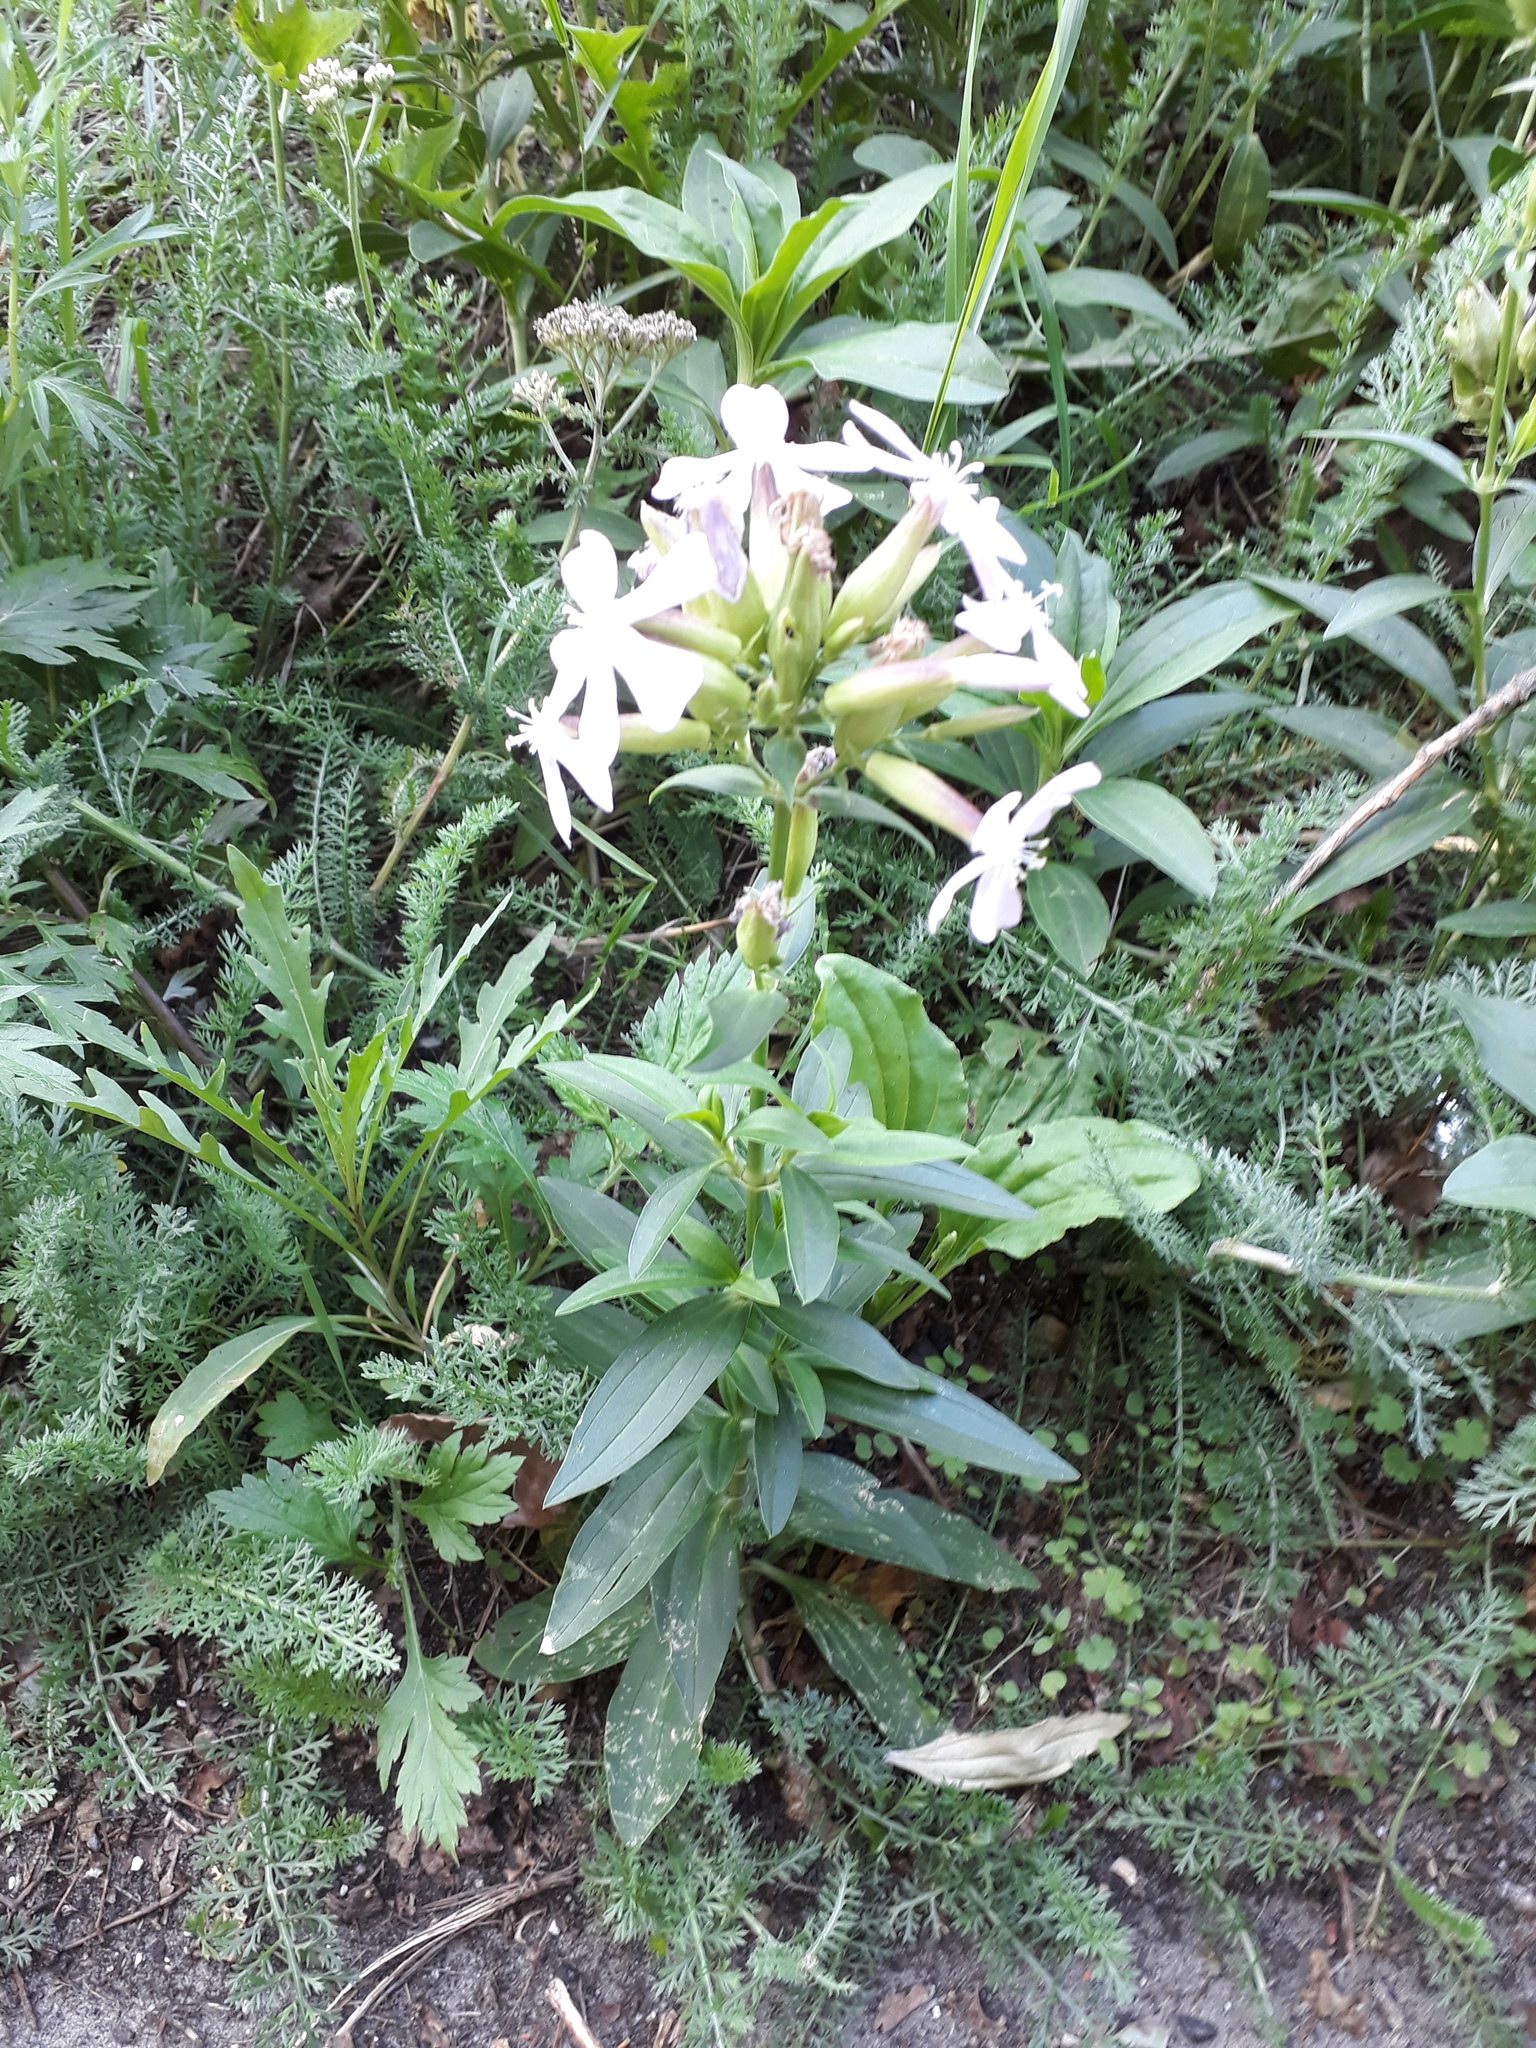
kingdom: Plantae
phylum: Tracheophyta
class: Magnoliopsida
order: Caryophyllales
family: Caryophyllaceae
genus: Saponaria
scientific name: Saponaria officinalis
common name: Soapwort
